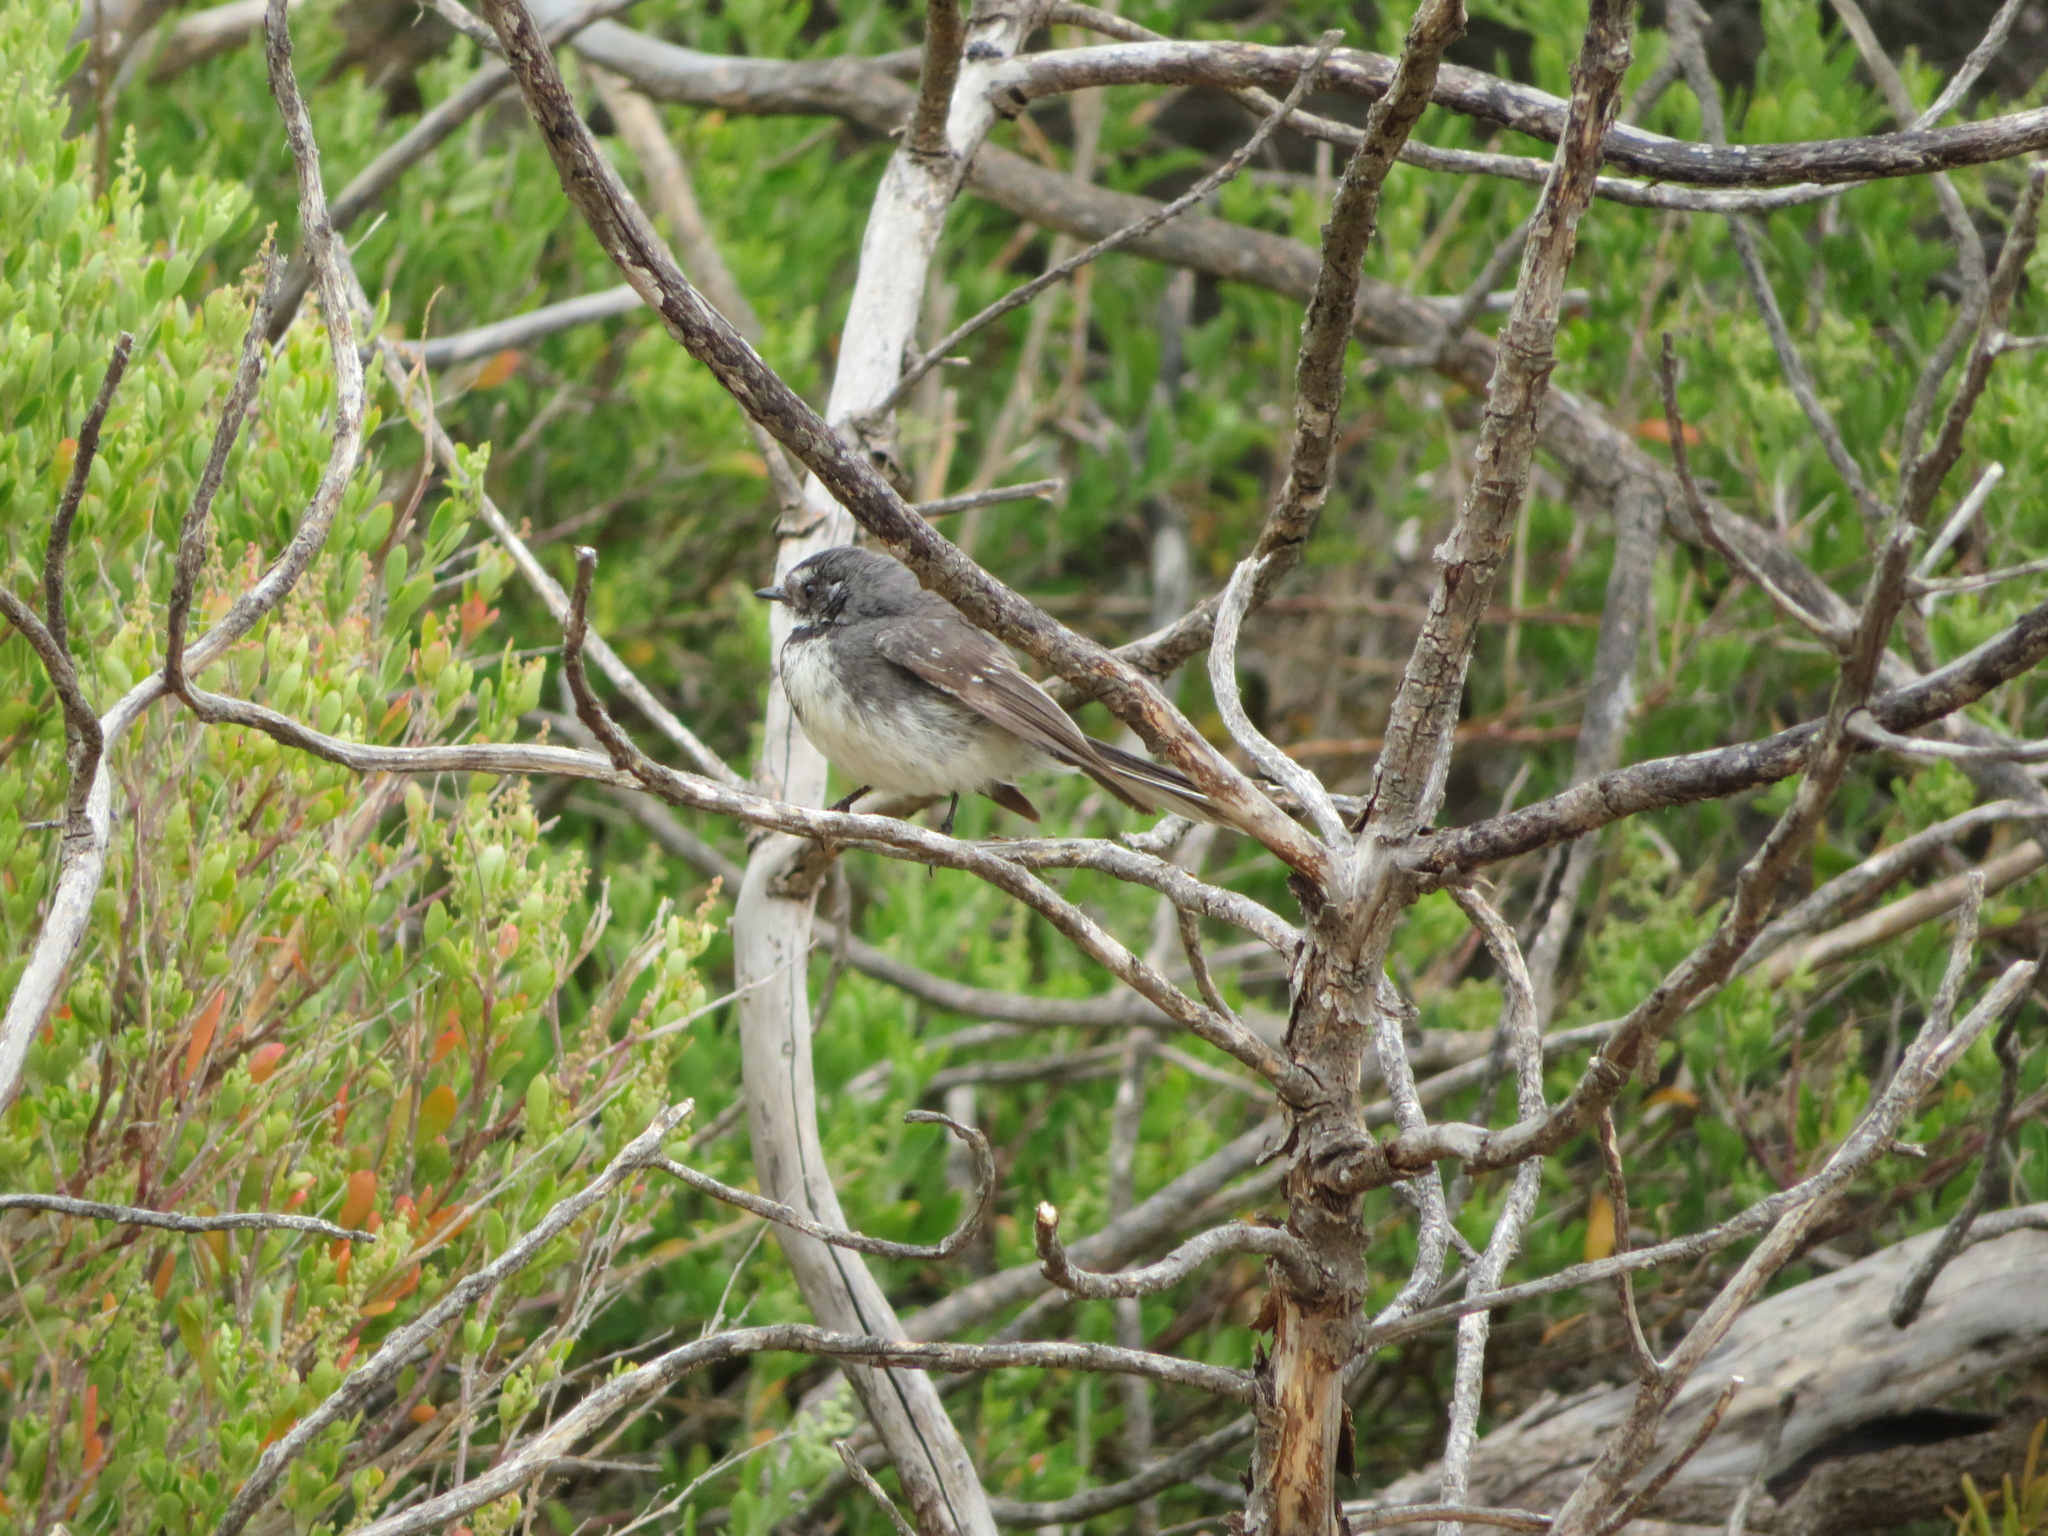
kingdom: Animalia
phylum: Chordata
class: Aves
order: Passeriformes
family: Rhipiduridae
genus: Rhipidura
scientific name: Rhipidura albiscapa
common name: Grey fantail
